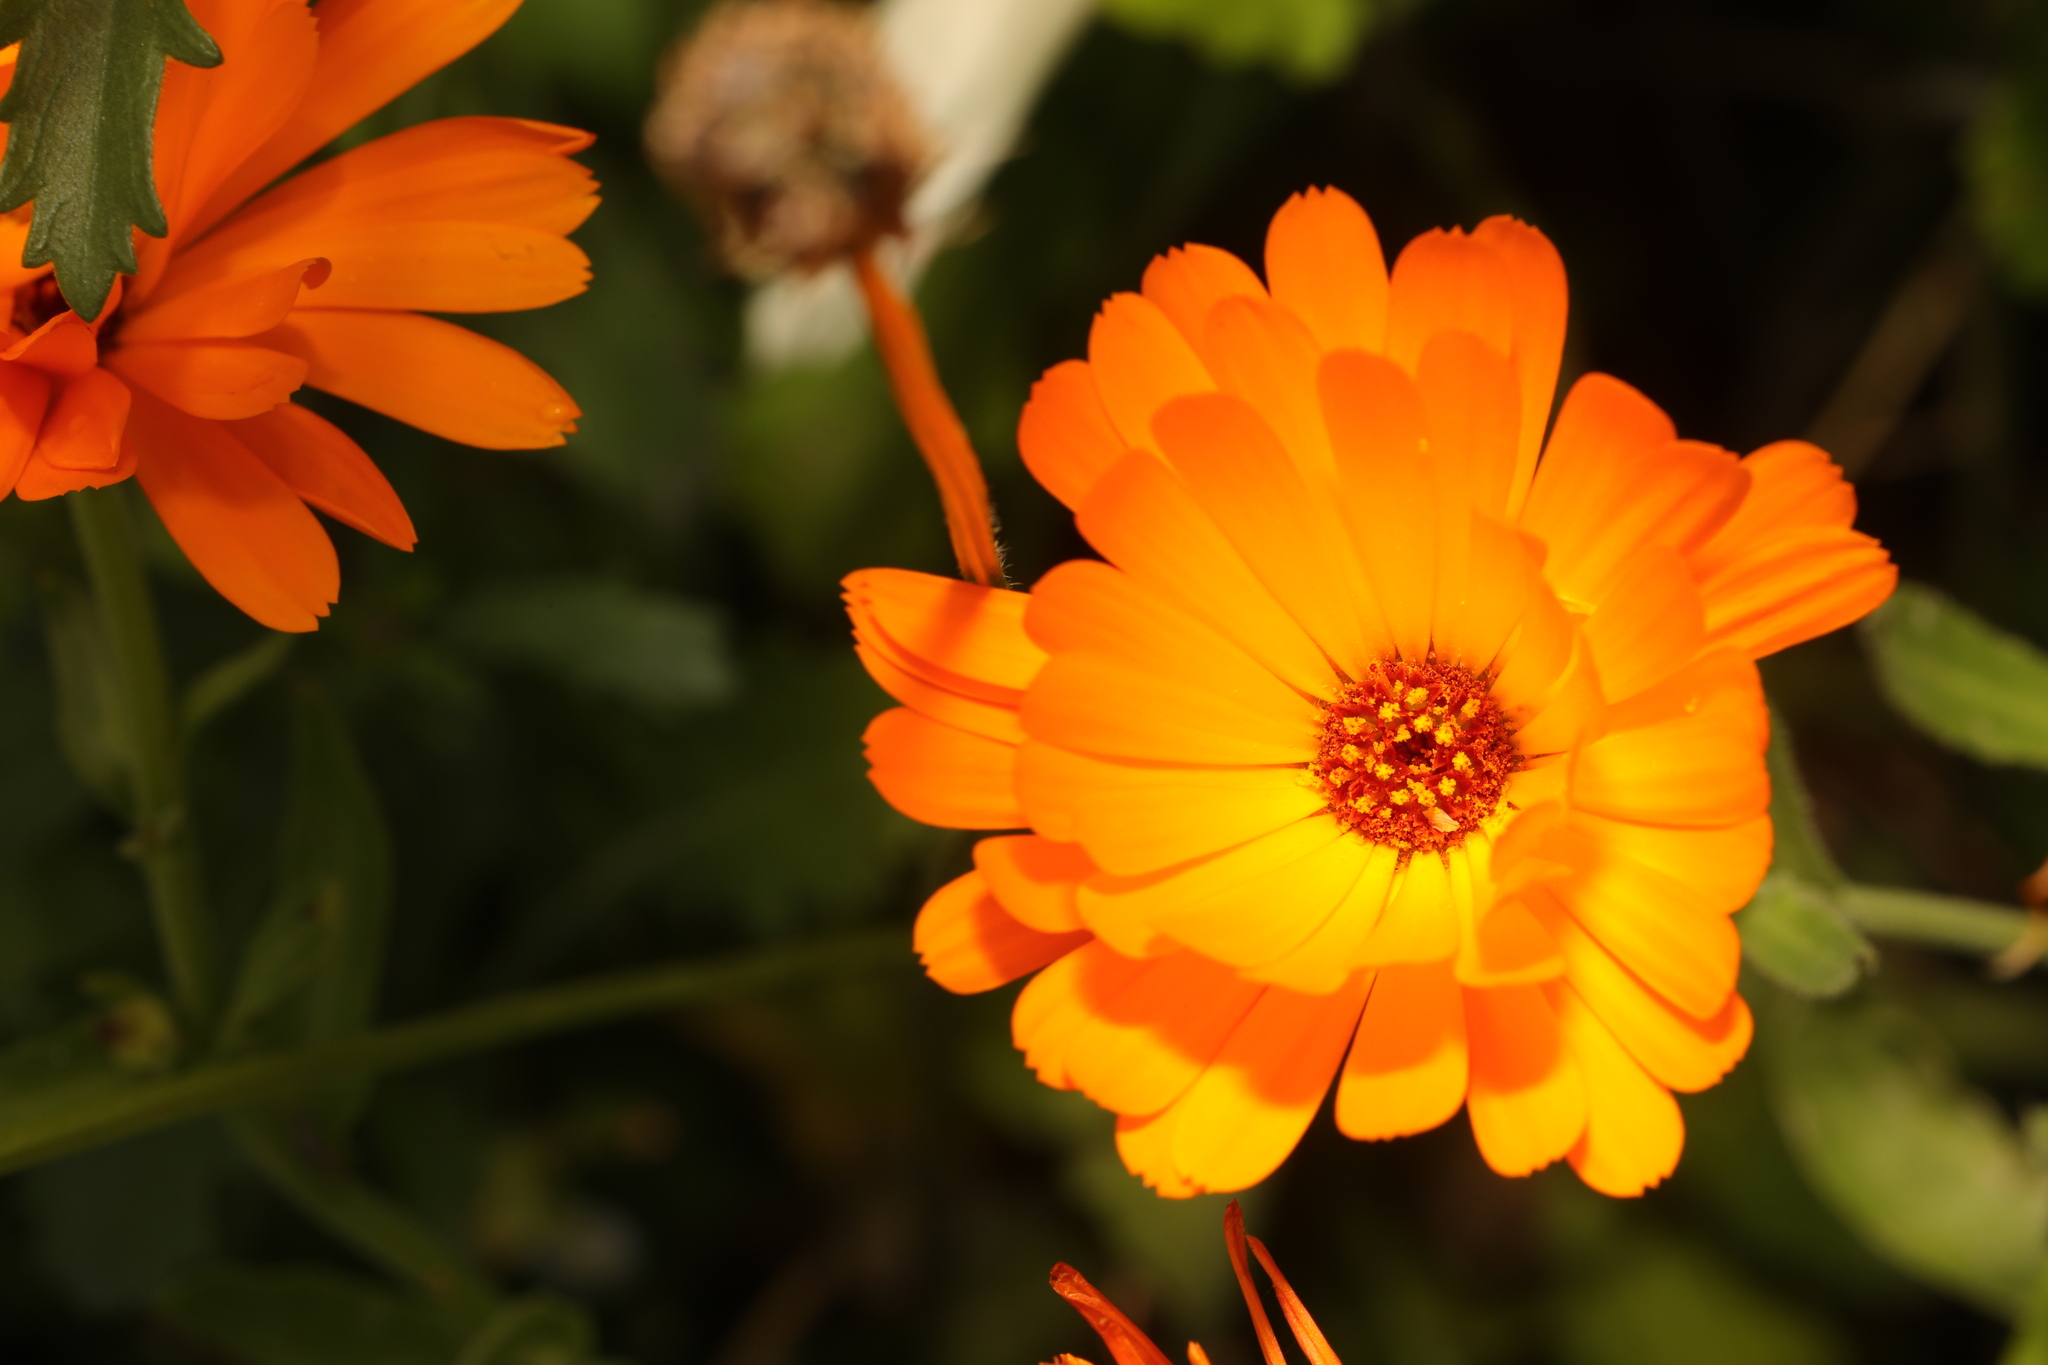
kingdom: Plantae
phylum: Tracheophyta
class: Magnoliopsida
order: Asterales
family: Asteraceae
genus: Calendula
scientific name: Calendula officinalis
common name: Pot marigold
